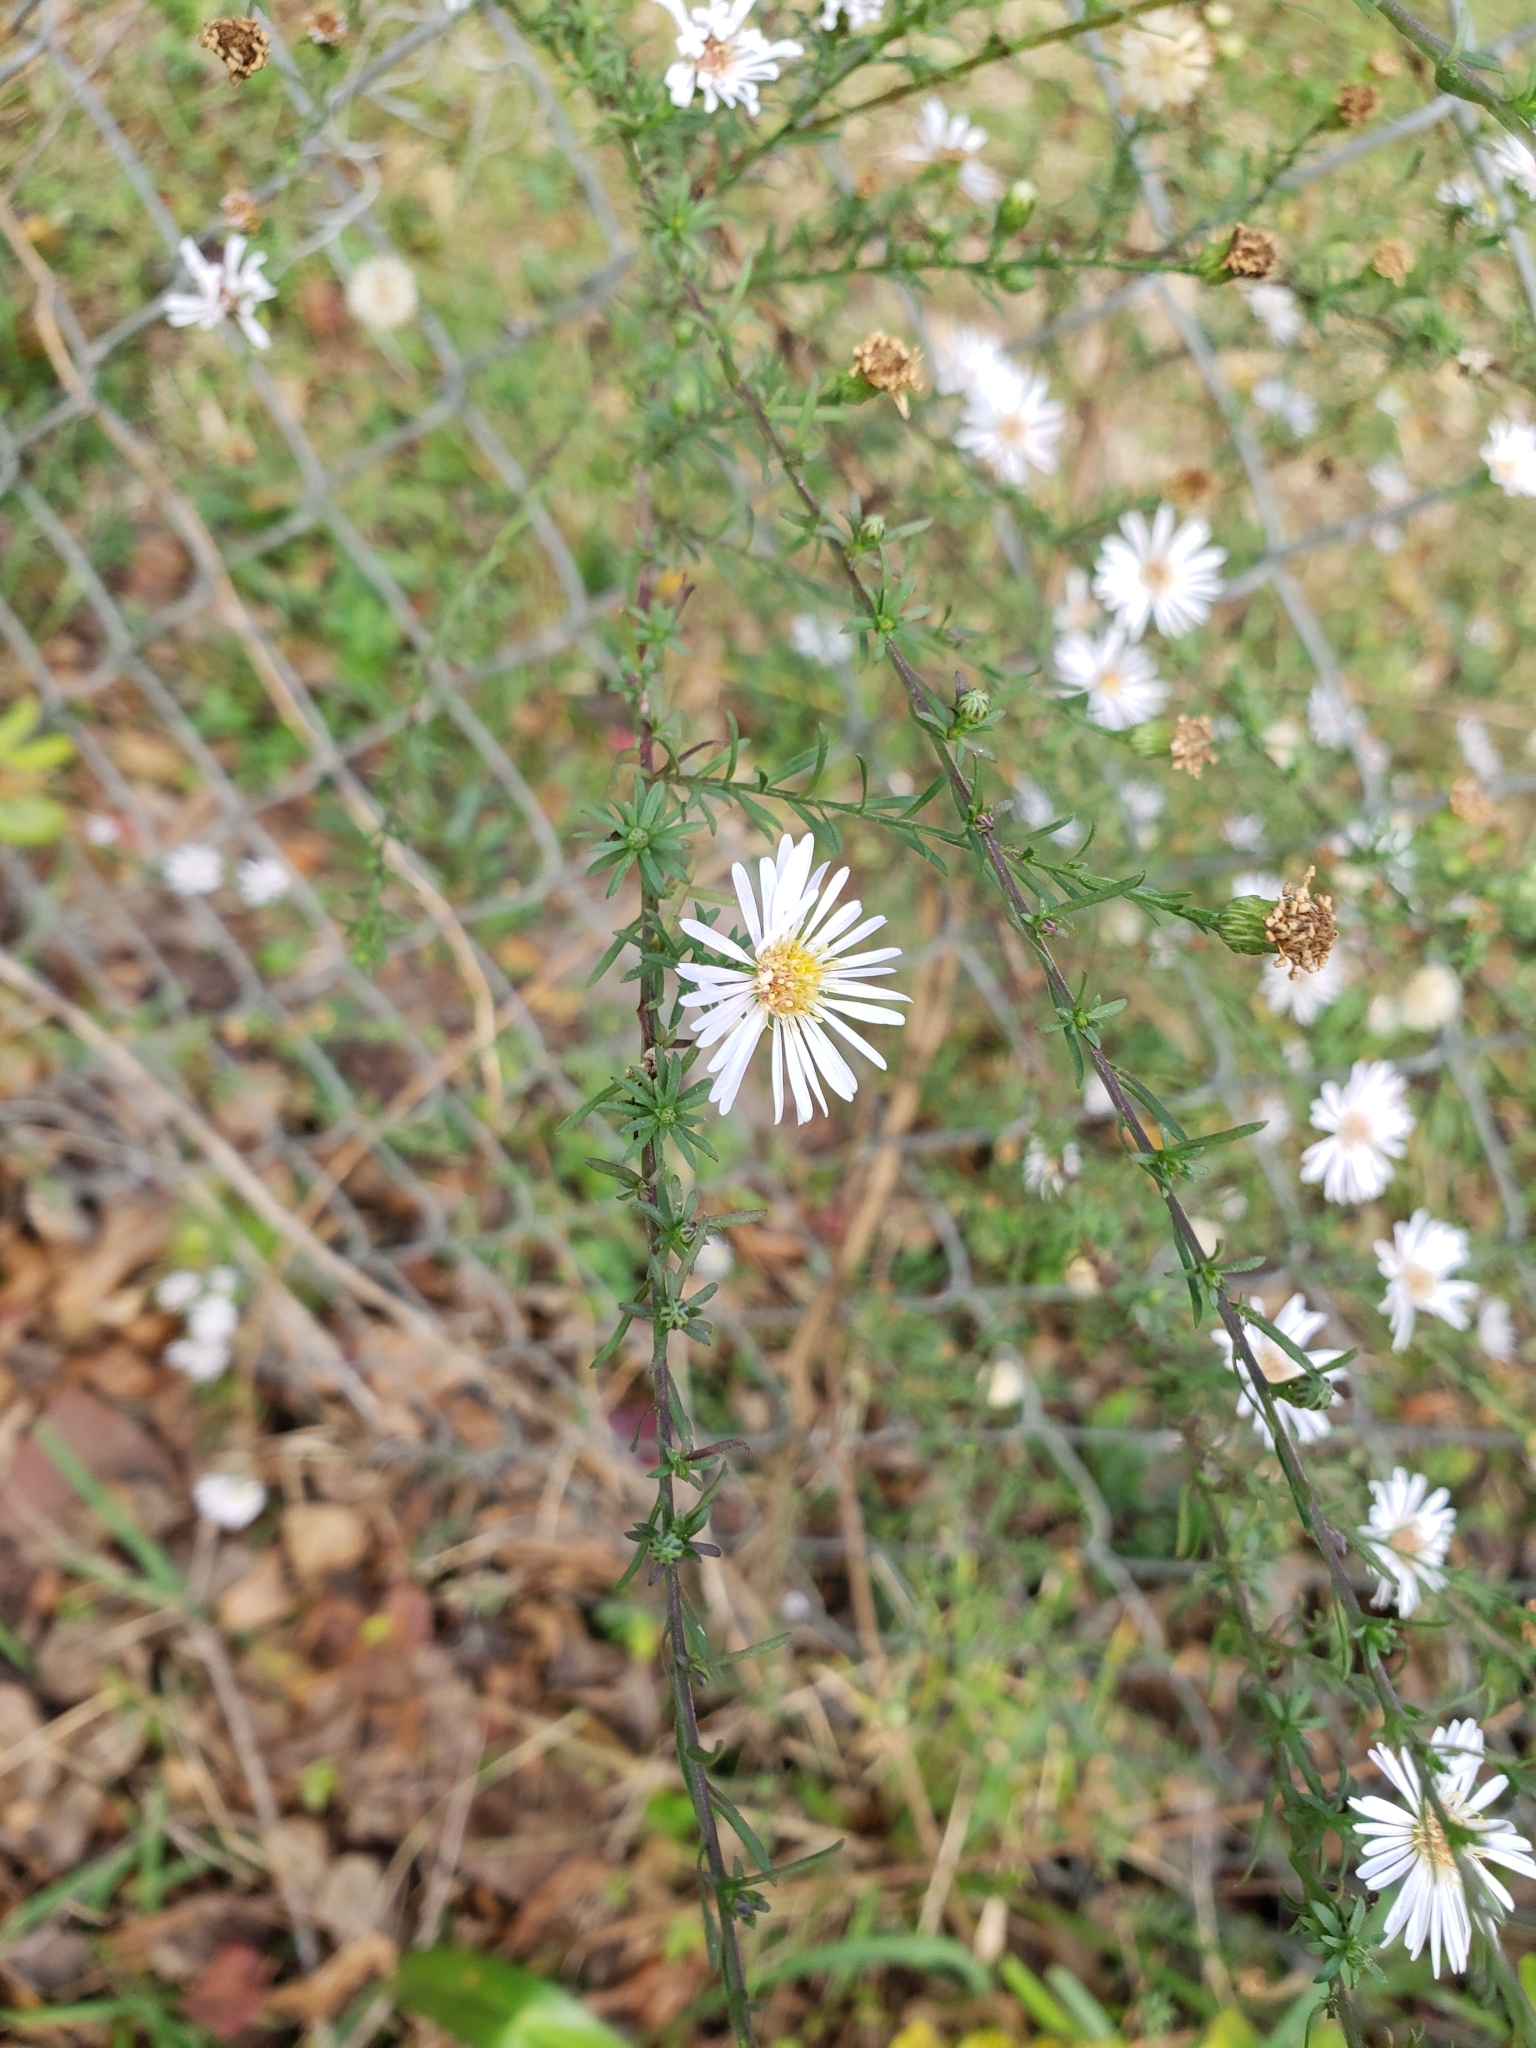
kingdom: Plantae
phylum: Tracheophyta
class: Magnoliopsida
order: Asterales
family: Asteraceae
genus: Symphyotrichum
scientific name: Symphyotrichum dumosum
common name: Bushy aster
